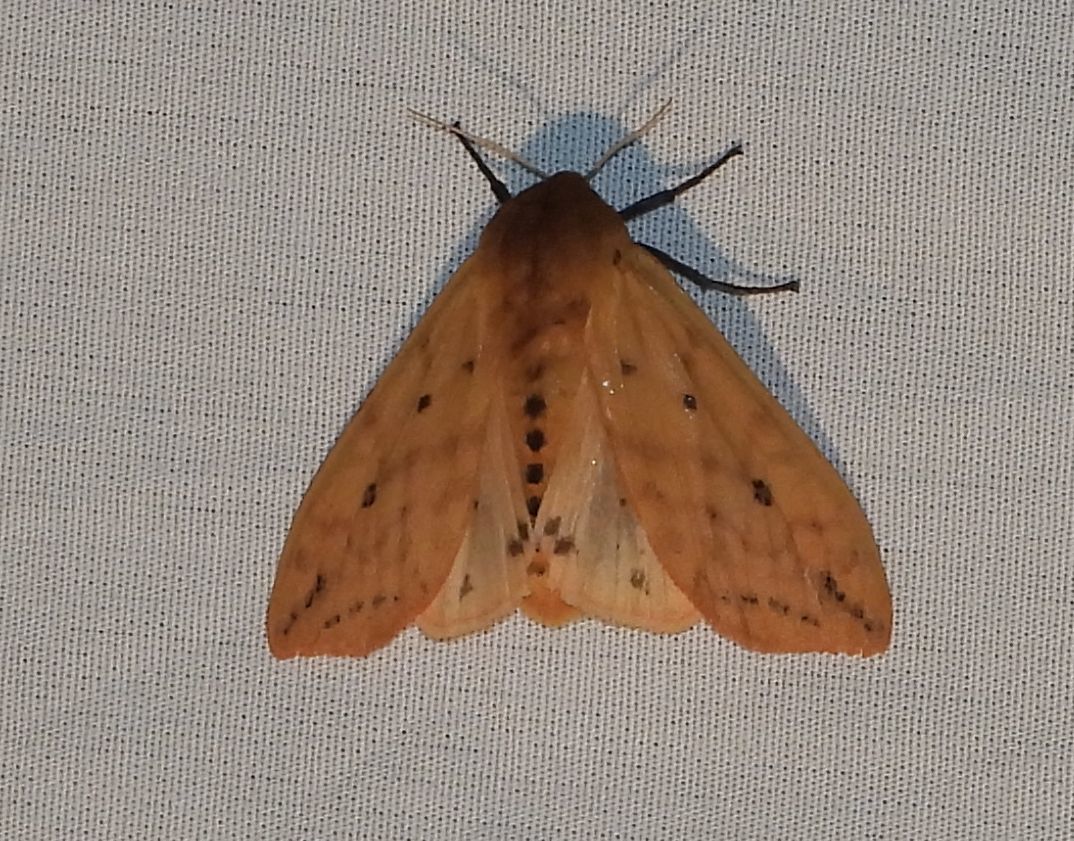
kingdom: Animalia
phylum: Arthropoda
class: Insecta
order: Lepidoptera
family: Erebidae
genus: Pyrrharctia
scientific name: Pyrrharctia isabella
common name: Isabella tiger moth
